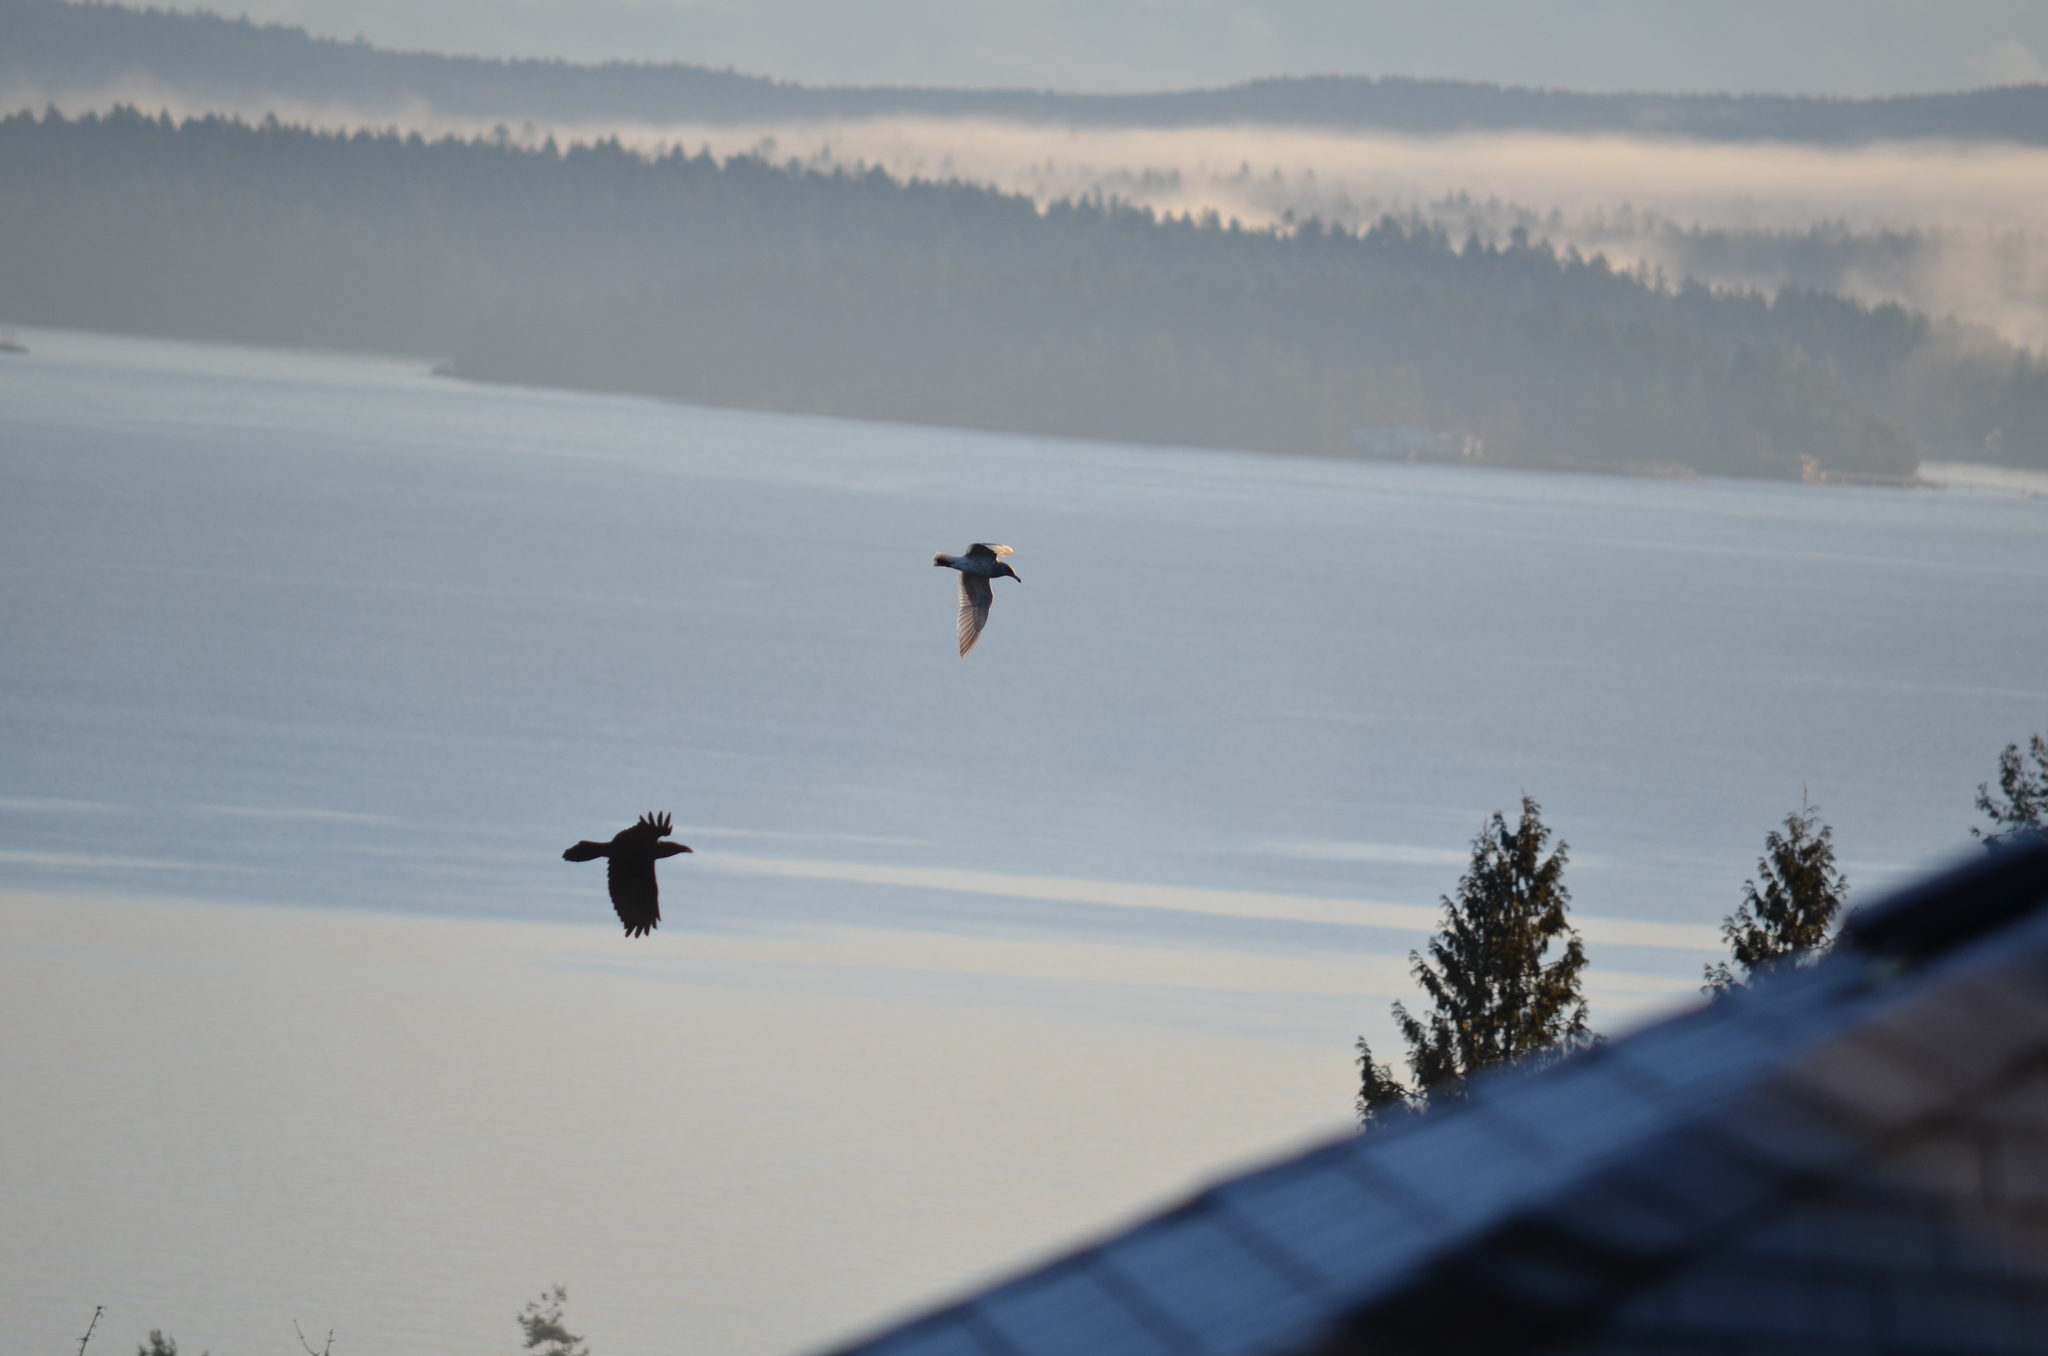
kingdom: Animalia
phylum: Chordata
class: Aves
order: Passeriformes
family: Corvidae
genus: Corvus
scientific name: Corvus corax
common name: Common raven
